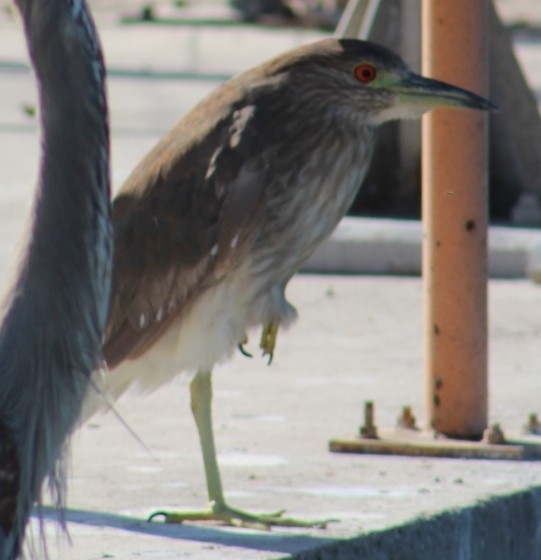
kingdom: Animalia
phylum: Chordata
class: Aves
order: Pelecaniformes
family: Ardeidae
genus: Nycticorax
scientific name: Nycticorax nycticorax
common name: Black-crowned night heron
